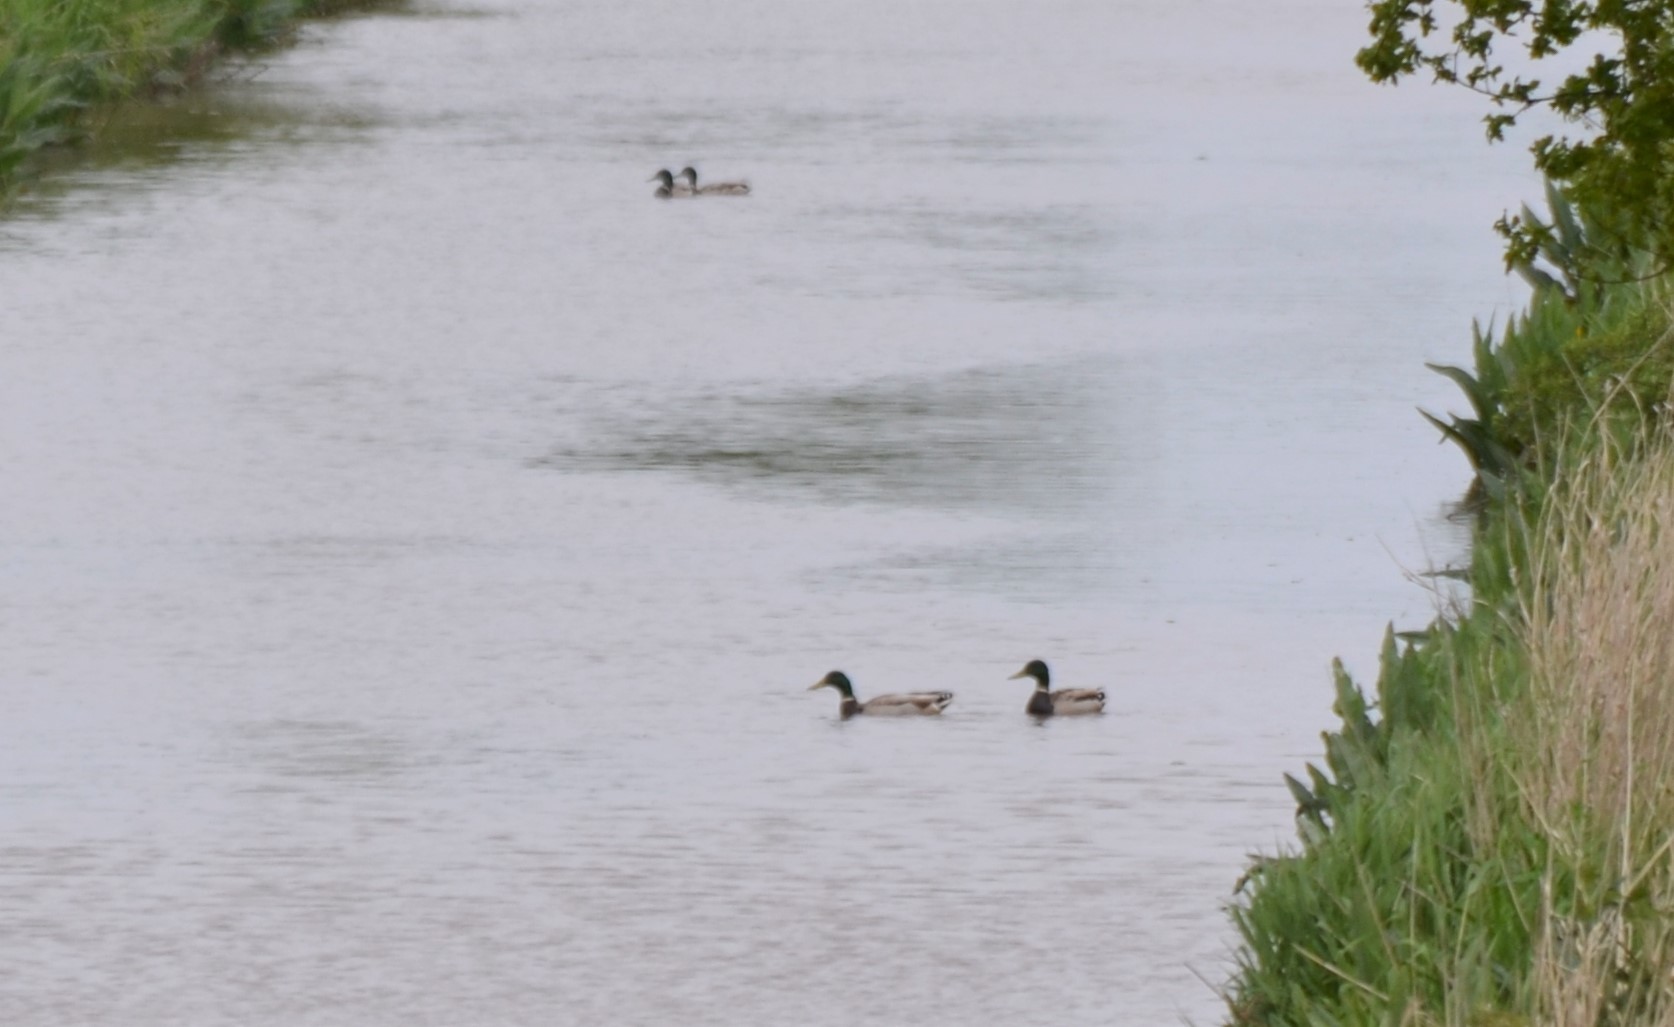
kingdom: Animalia
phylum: Chordata
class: Aves
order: Anseriformes
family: Anatidae
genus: Anas
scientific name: Anas platyrhynchos
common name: Mallard
